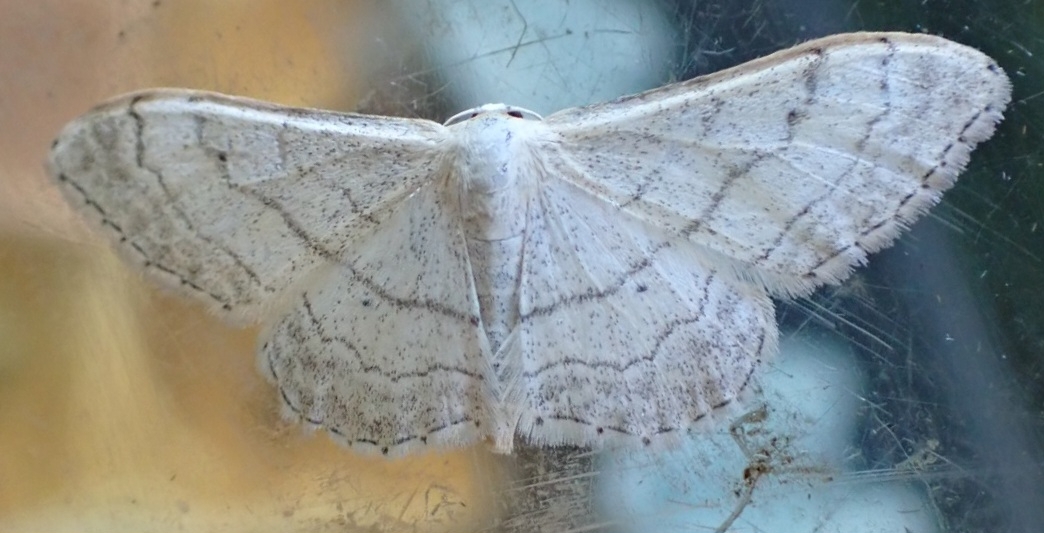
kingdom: Animalia
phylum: Arthropoda
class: Insecta
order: Lepidoptera
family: Geometridae
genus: Idaea
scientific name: Idaea aversata
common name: Riband wave
